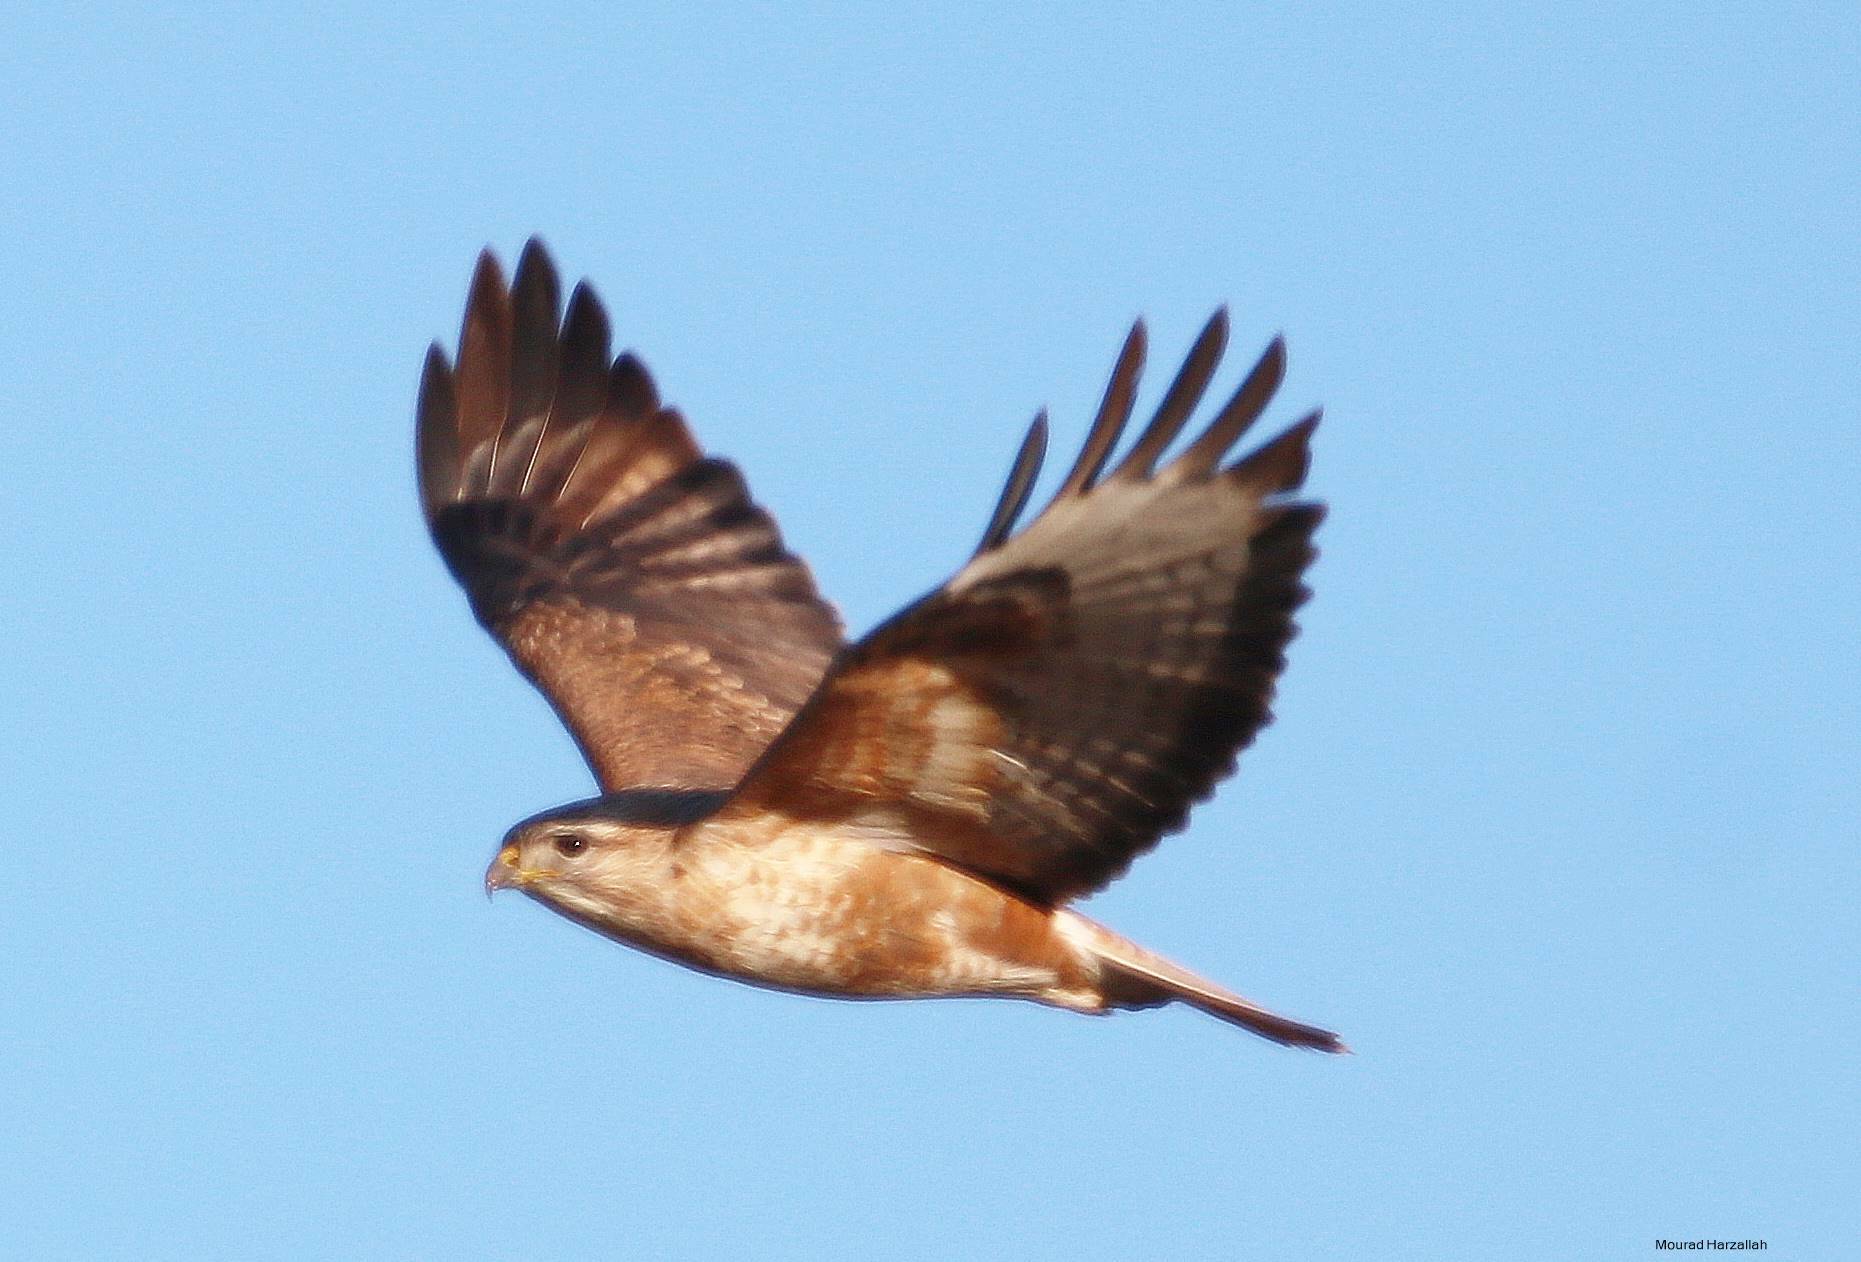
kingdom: Animalia
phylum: Chordata
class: Aves
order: Accipitriformes
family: Accipitridae
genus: Buteo
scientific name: Buteo rufinus
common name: Long-legged buzzard
